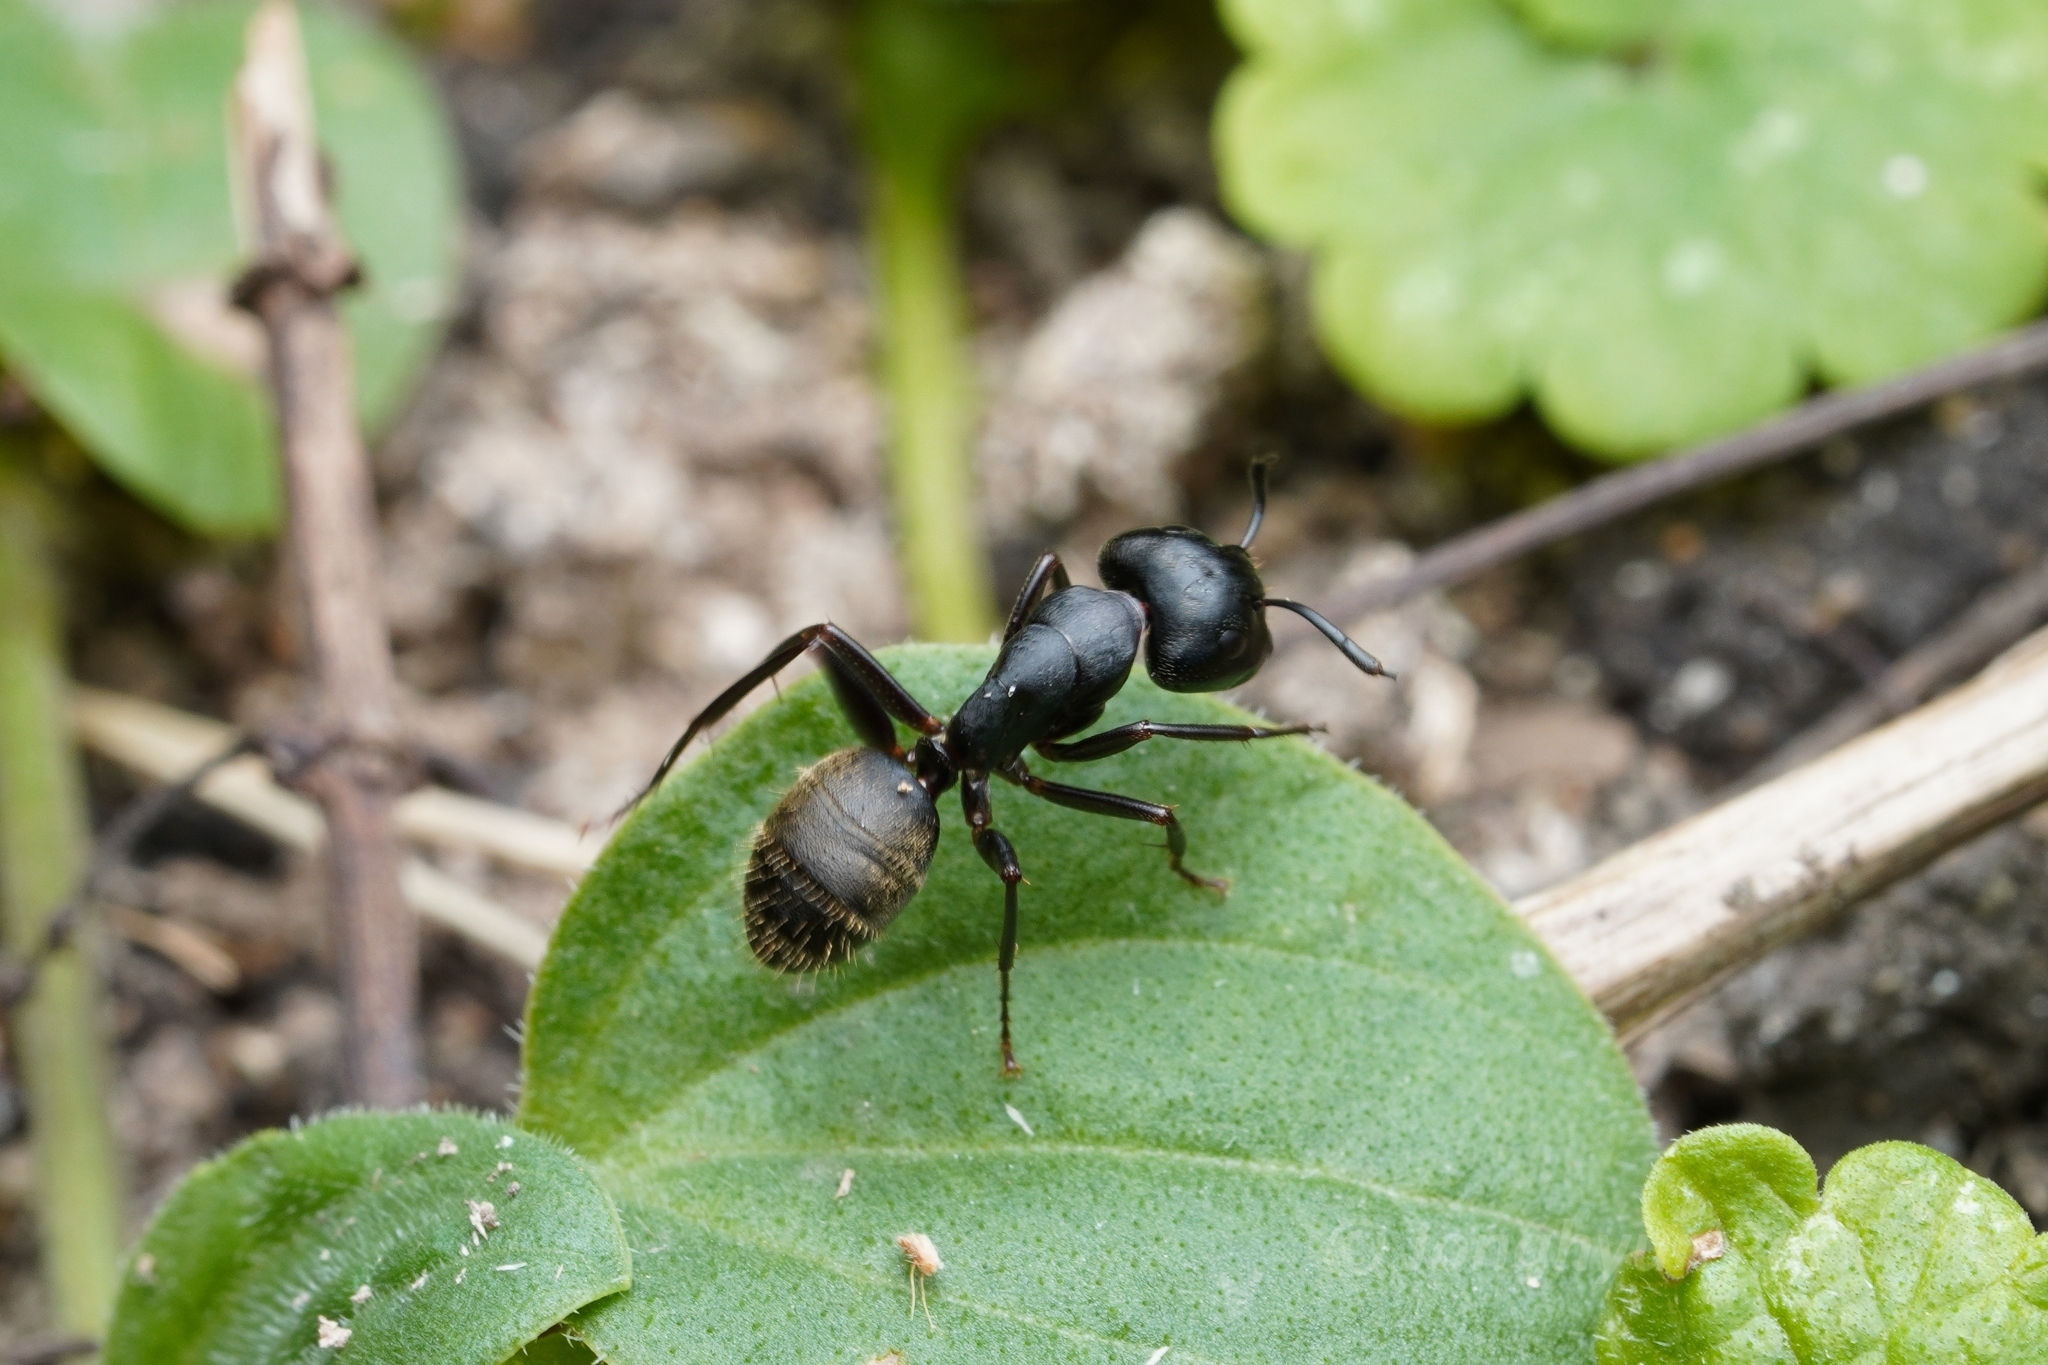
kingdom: Animalia
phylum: Arthropoda
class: Insecta
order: Hymenoptera
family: Formicidae
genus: Camponotus
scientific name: Camponotus pennsylvanicus
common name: Black carpenter ant
